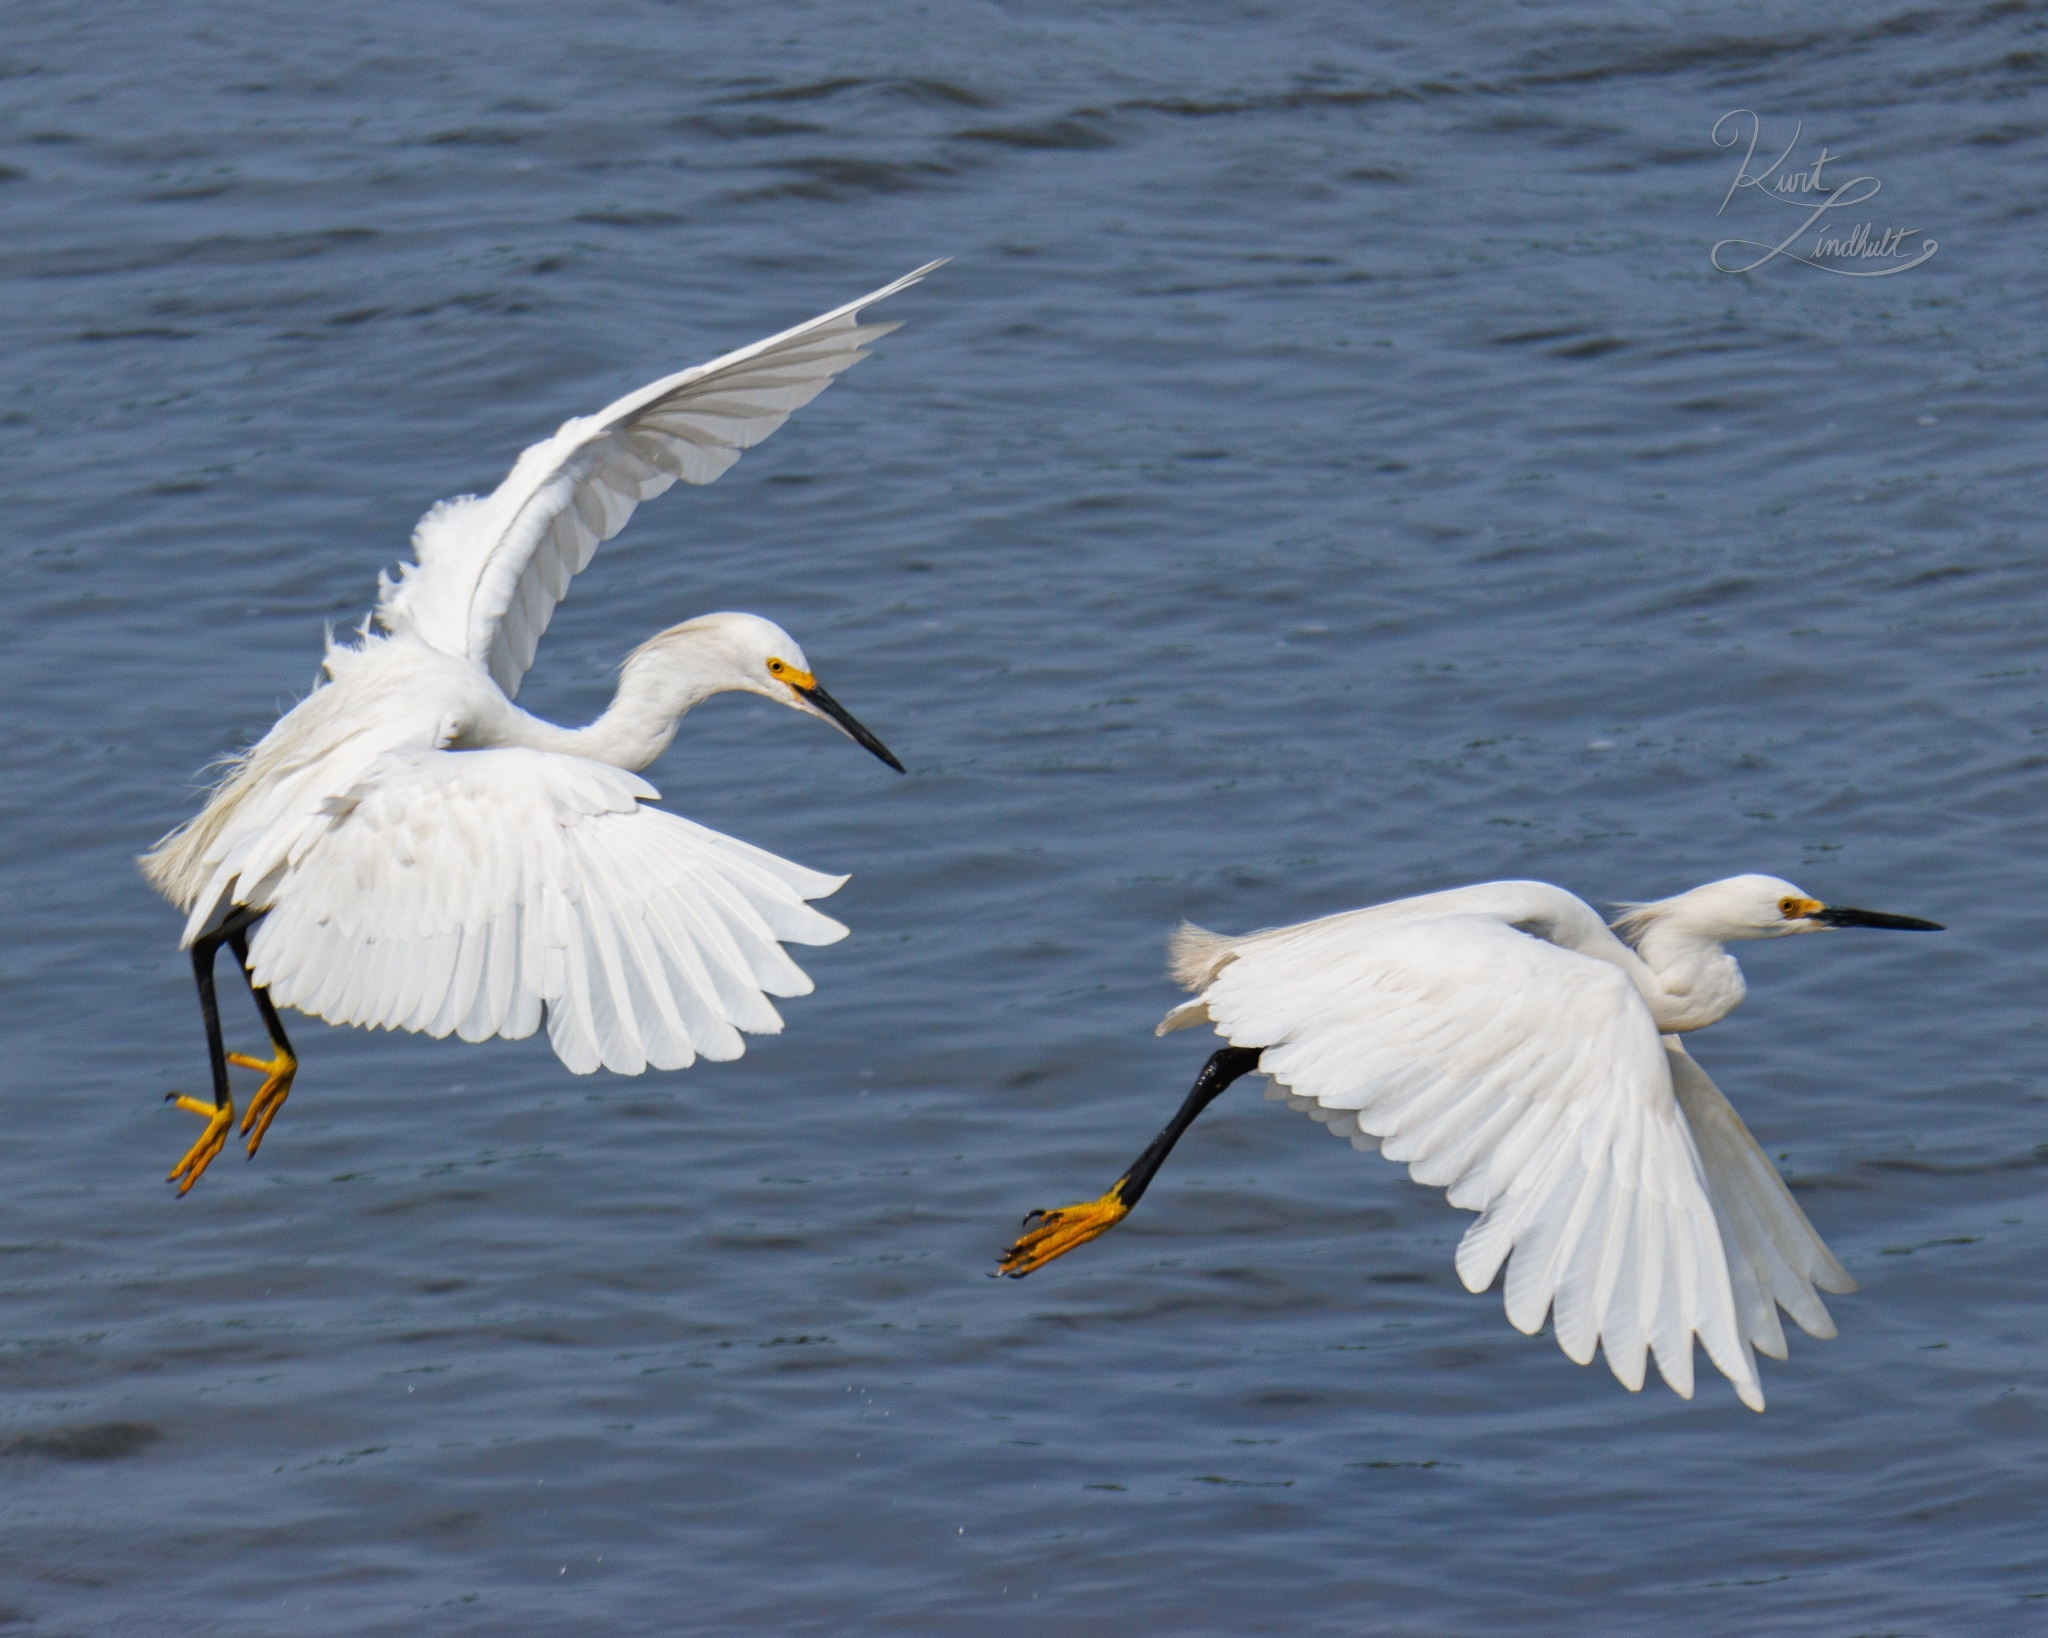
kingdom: Animalia
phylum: Chordata
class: Aves
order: Pelecaniformes
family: Ardeidae
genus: Egretta
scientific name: Egretta thula
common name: Snowy egret
